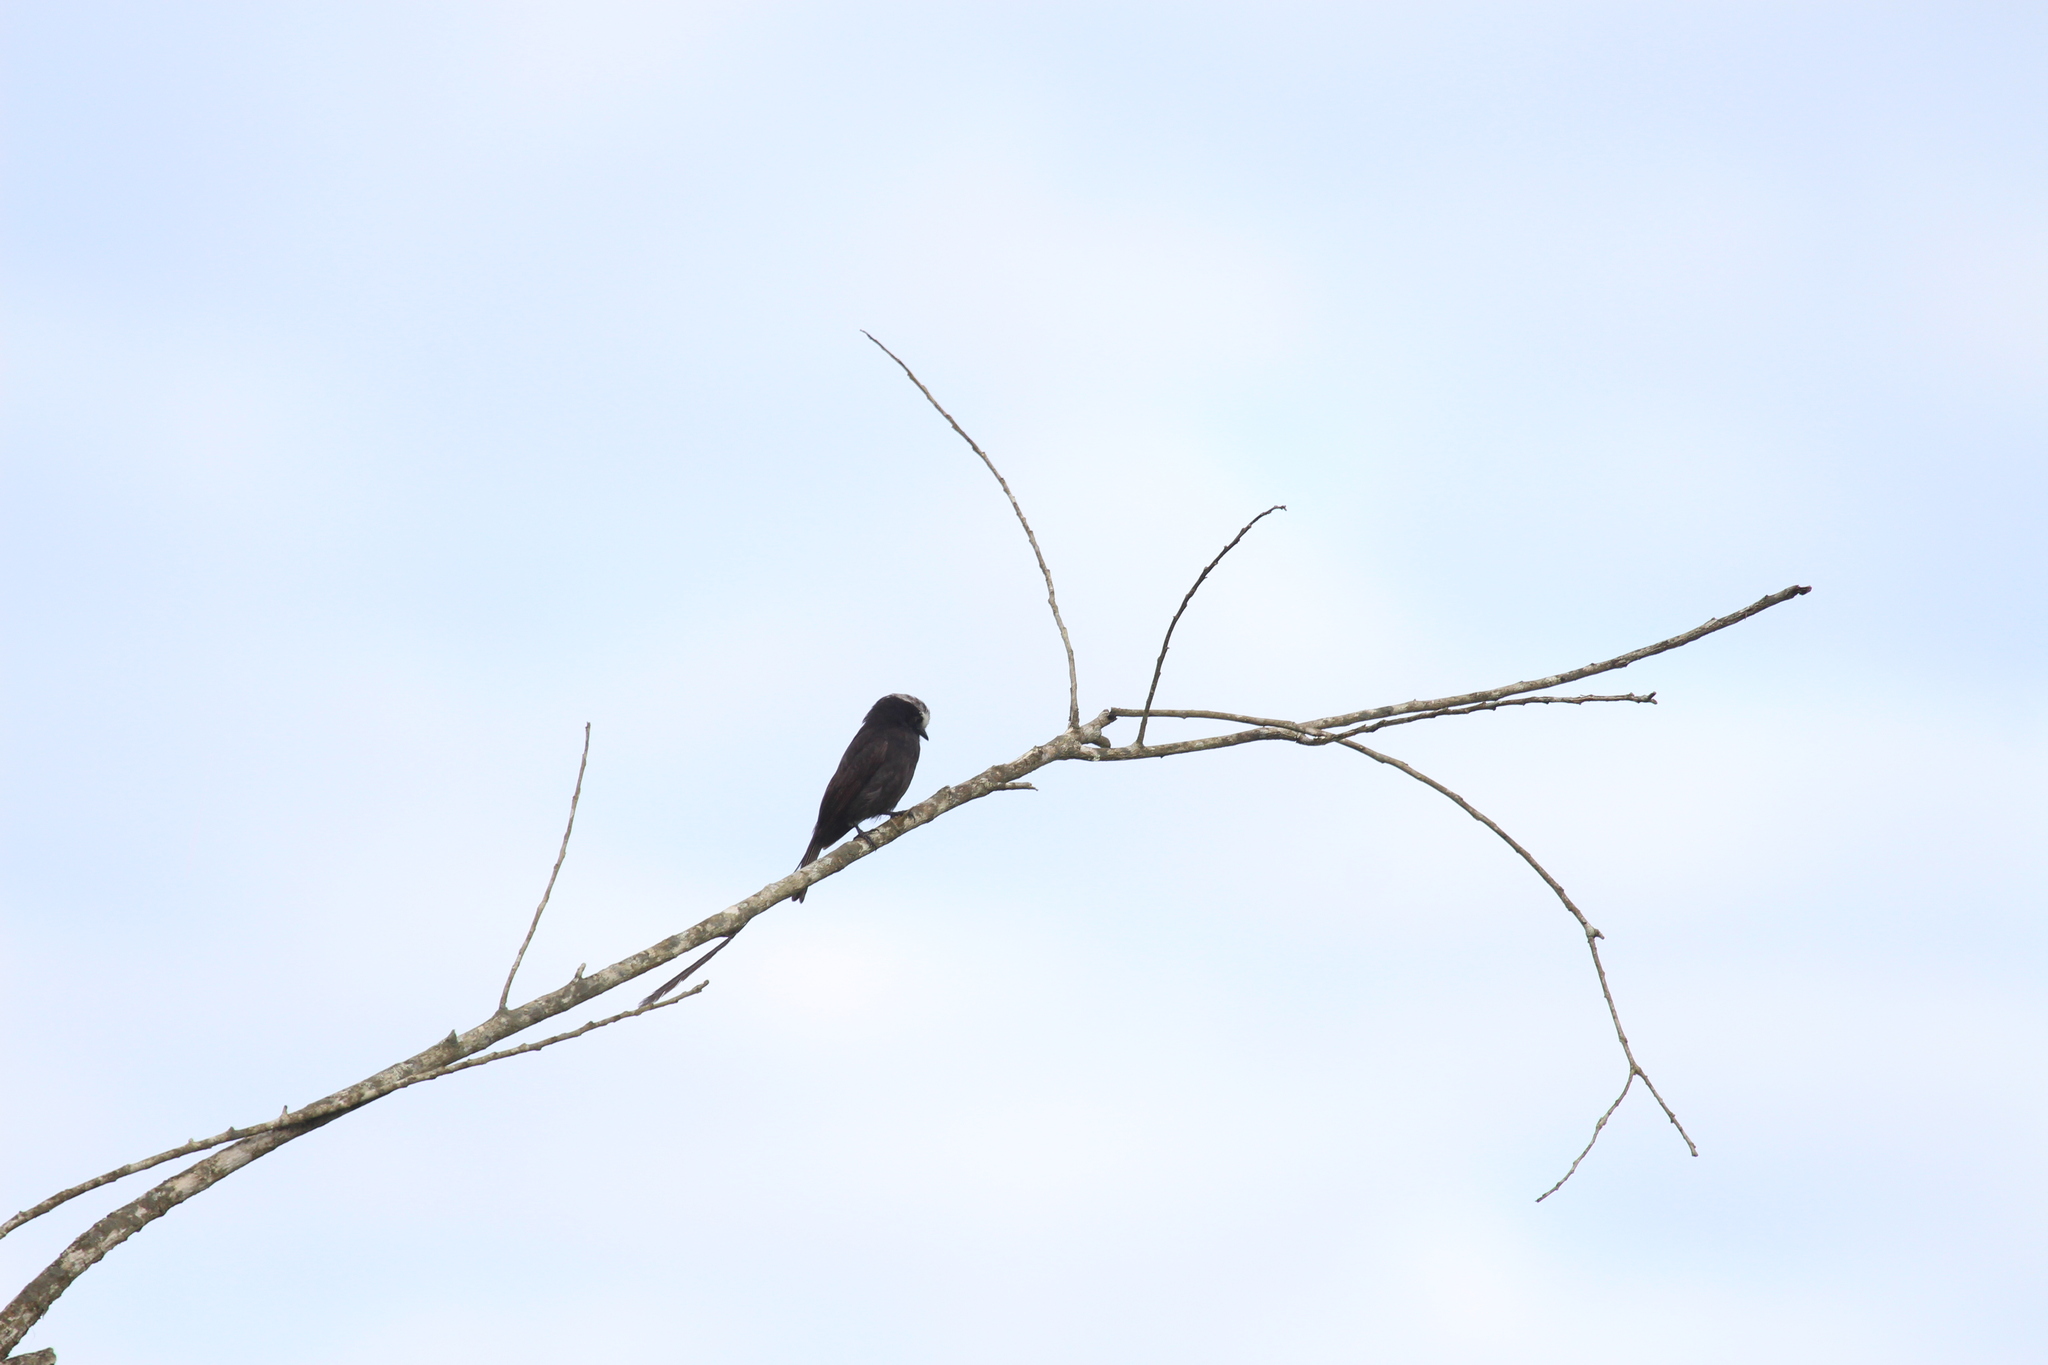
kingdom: Animalia
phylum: Chordata
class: Aves
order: Passeriformes
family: Tyrannidae
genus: Colonia
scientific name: Colonia colonus
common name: Long-tailed tyrant
